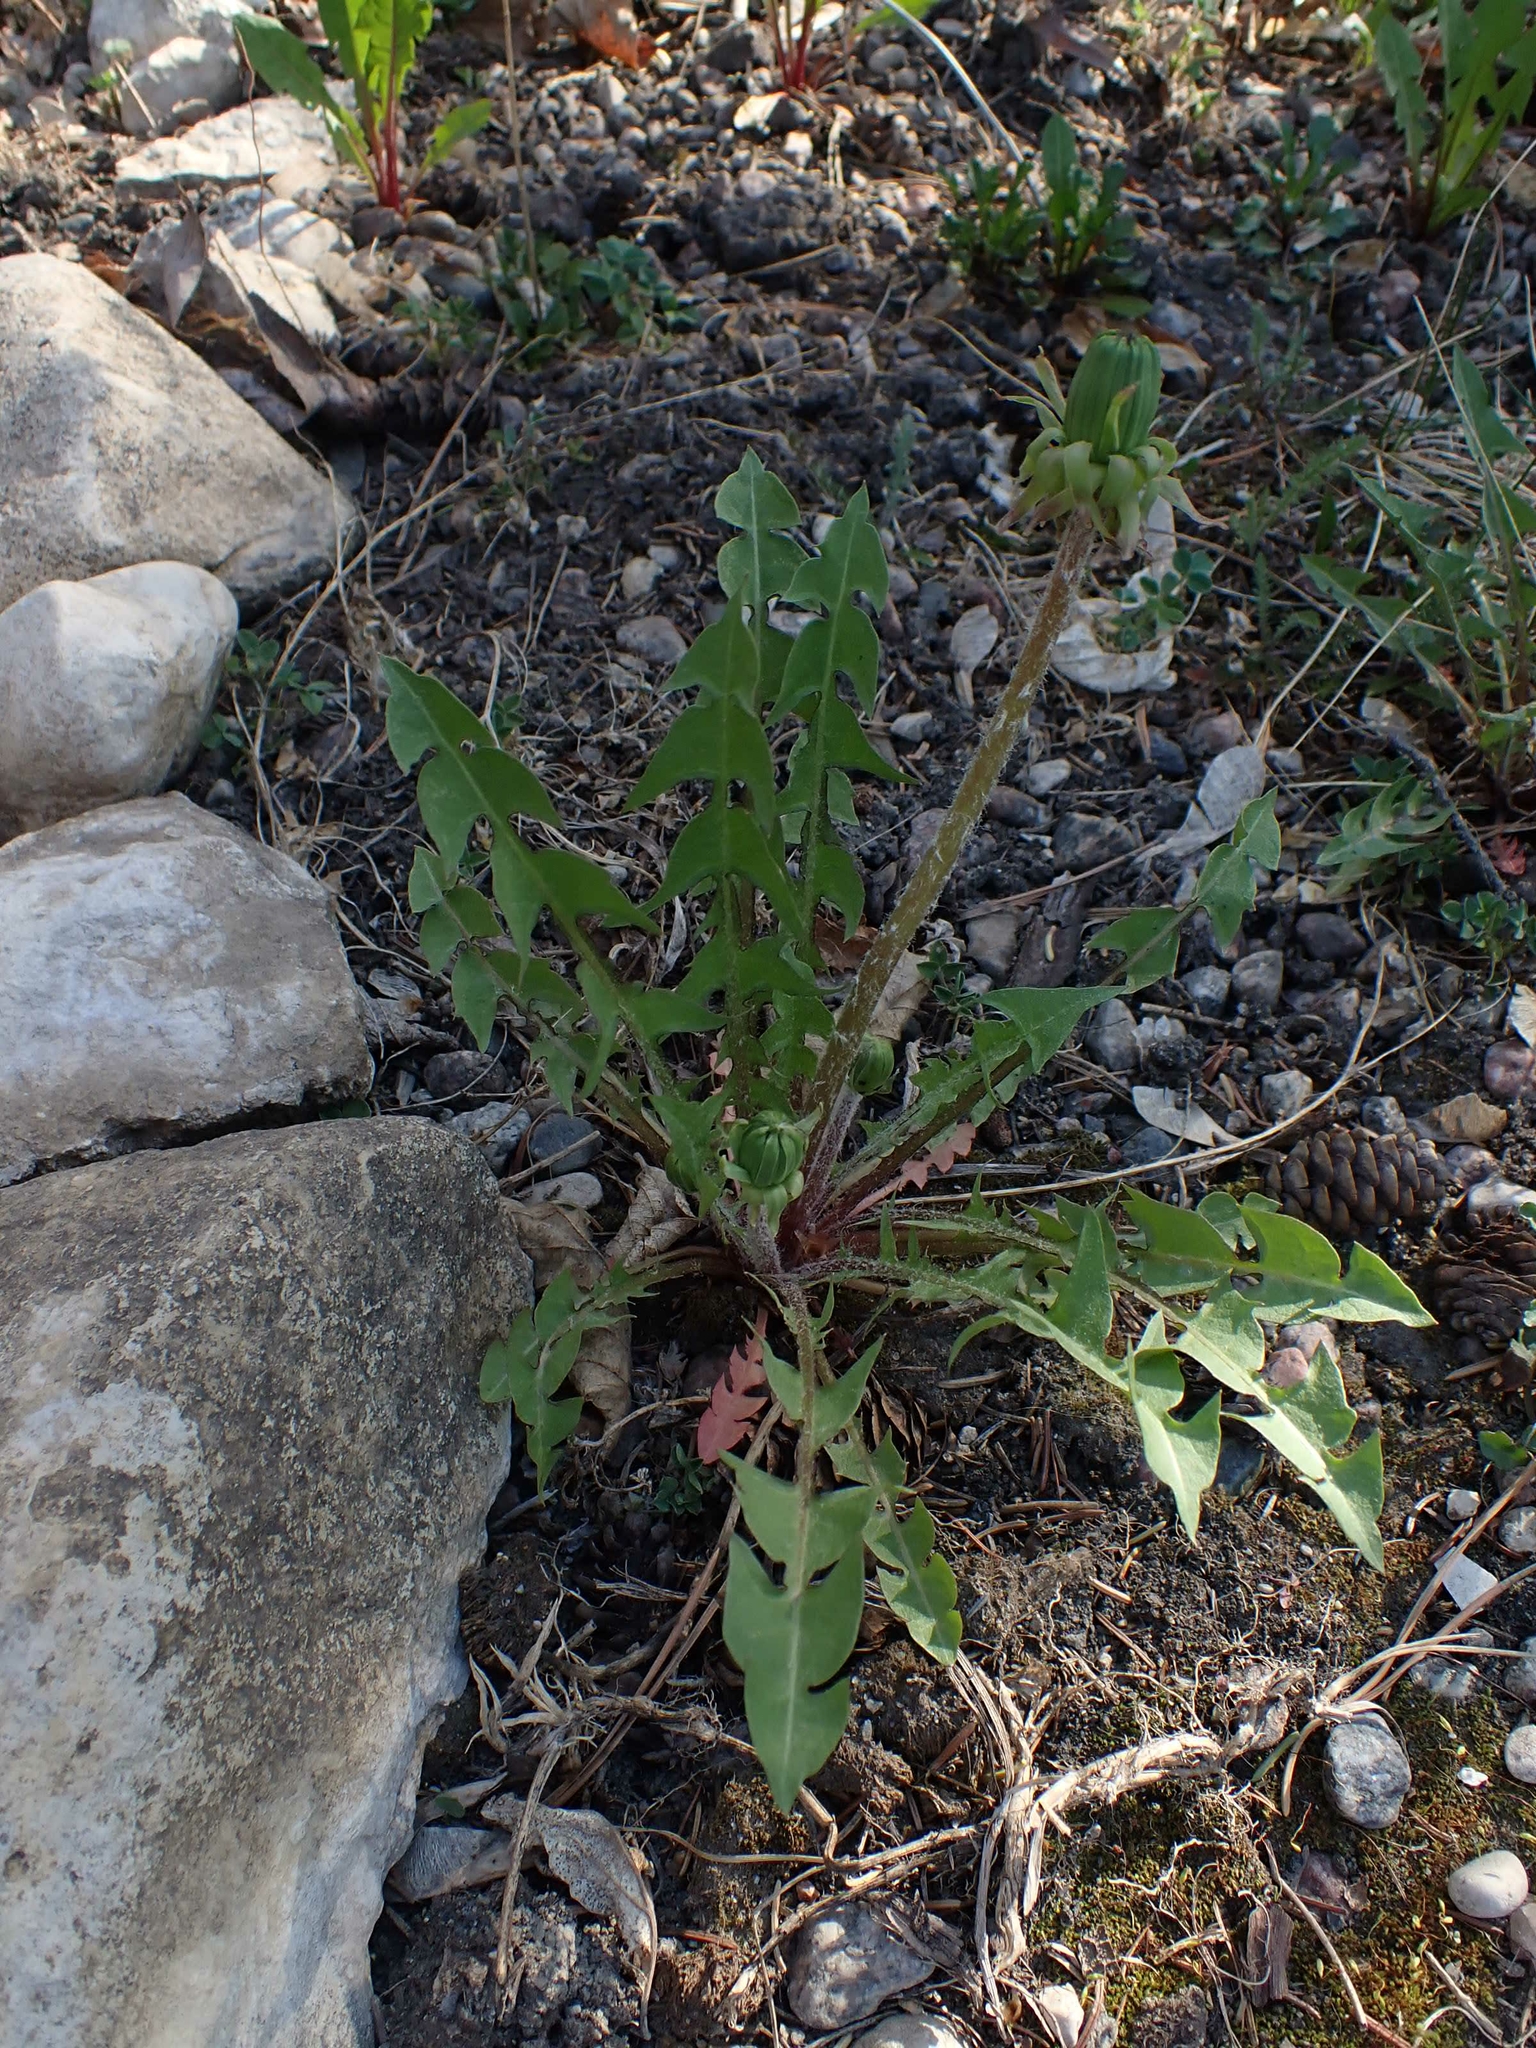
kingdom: Plantae
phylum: Tracheophyta
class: Magnoliopsida
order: Asterales
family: Asteraceae
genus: Taraxacum
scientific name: Taraxacum officinale
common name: Common dandelion
